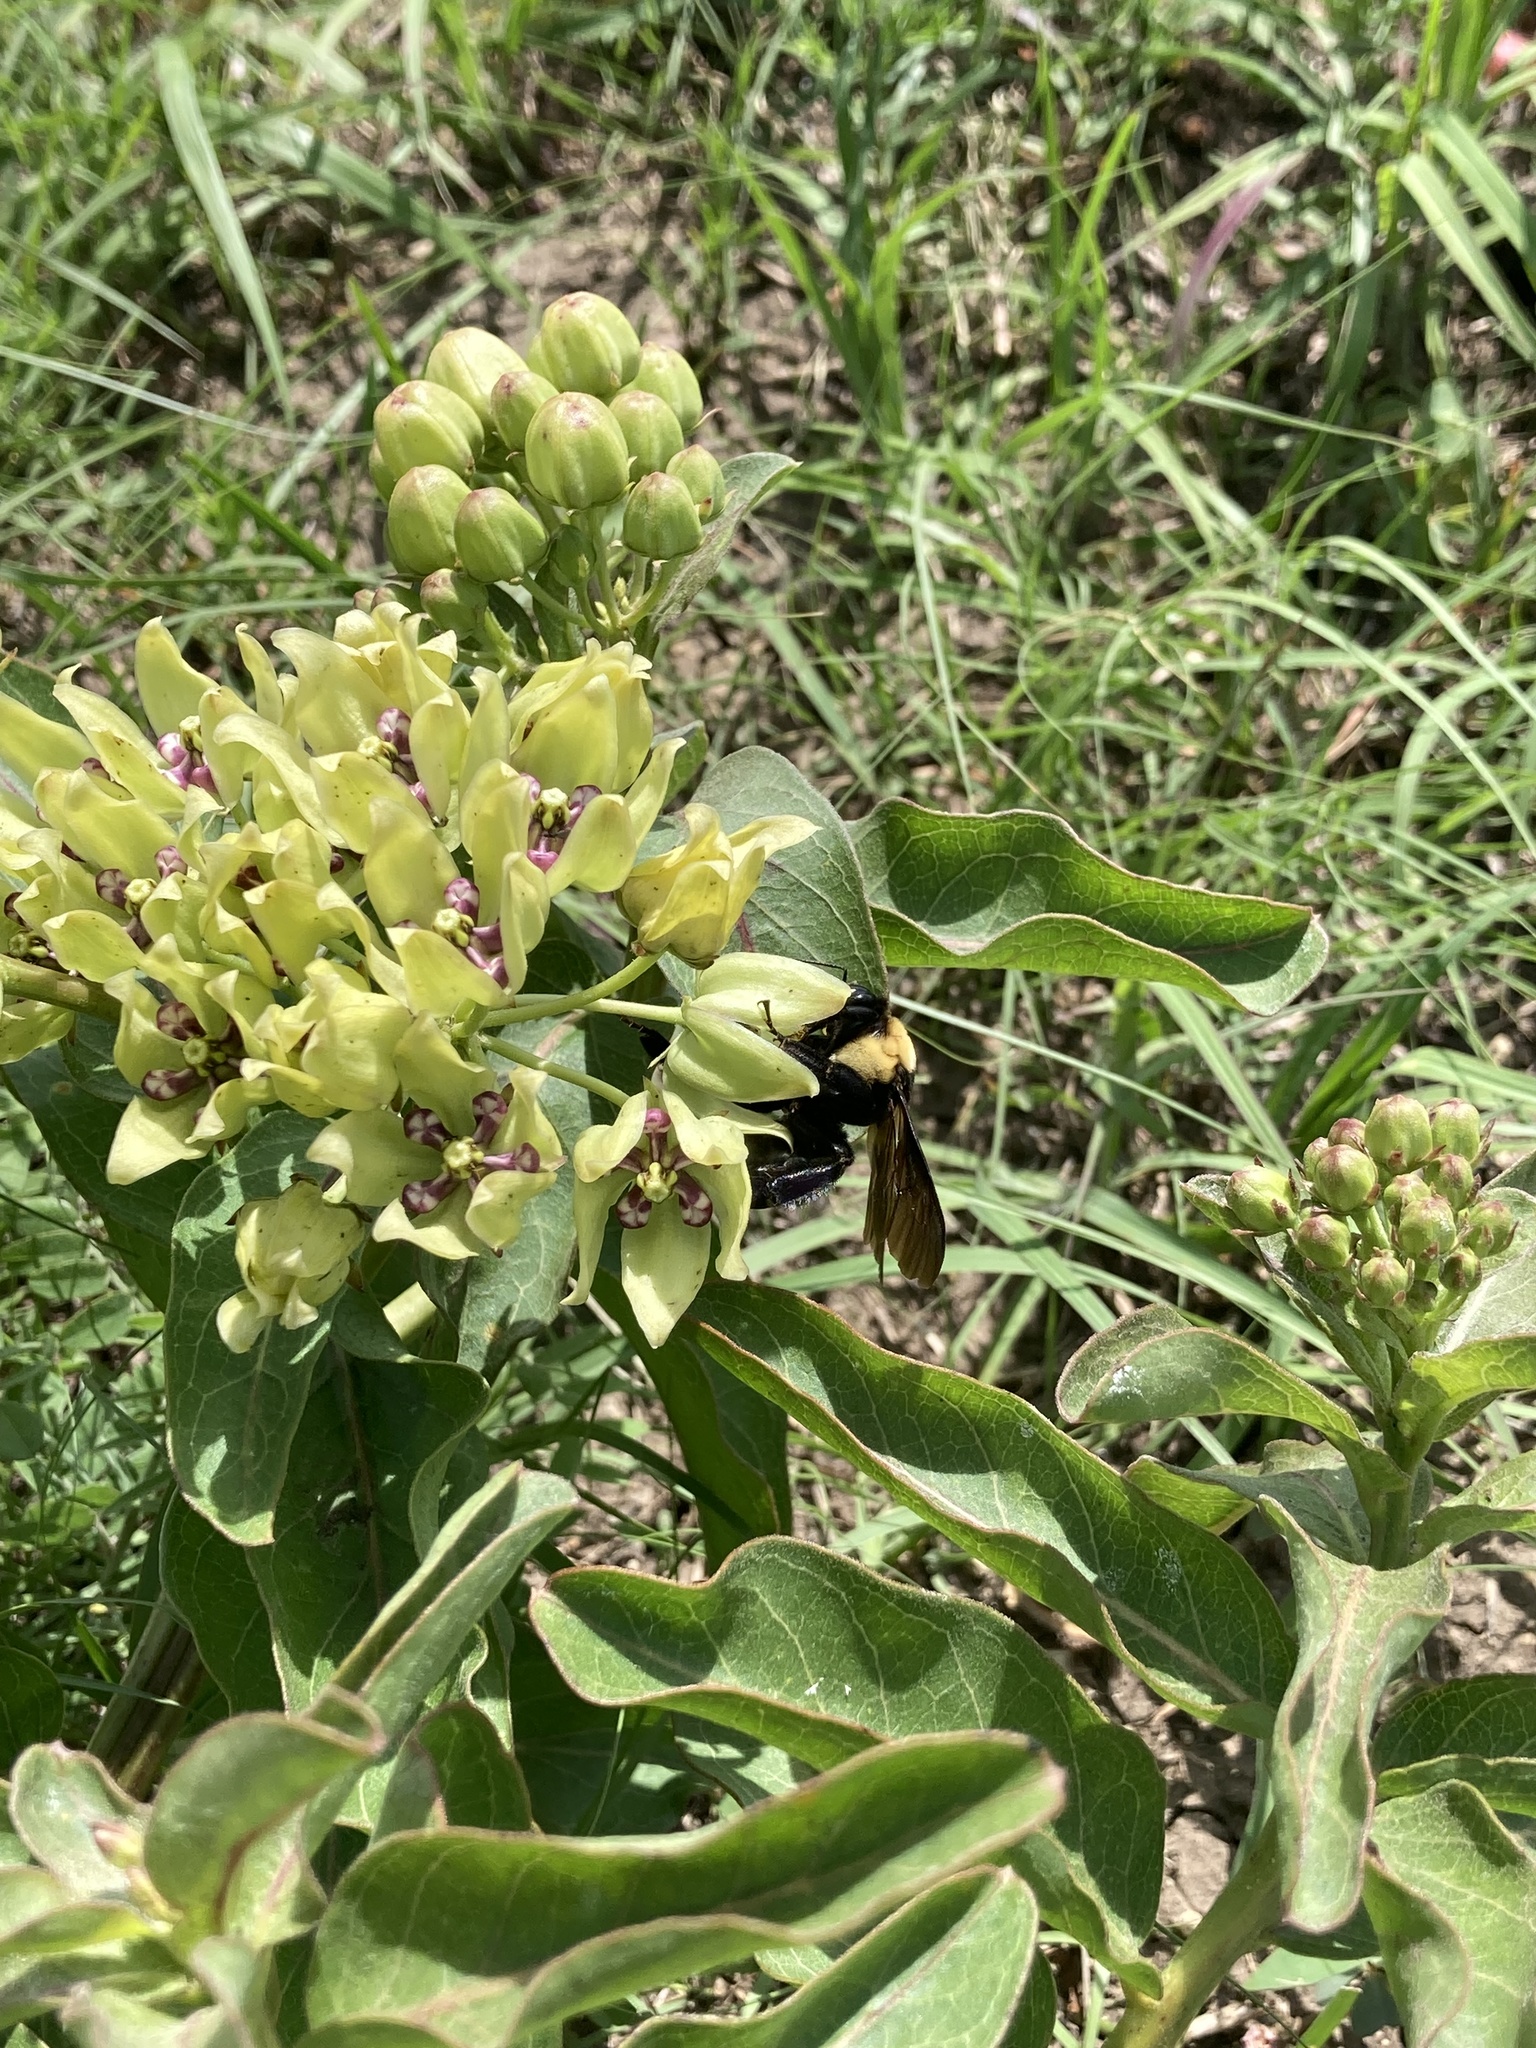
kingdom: Animalia
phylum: Arthropoda
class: Insecta
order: Hymenoptera
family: Apidae
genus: Bombus
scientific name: Bombus fraternus
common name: Southern plains bumble bee
